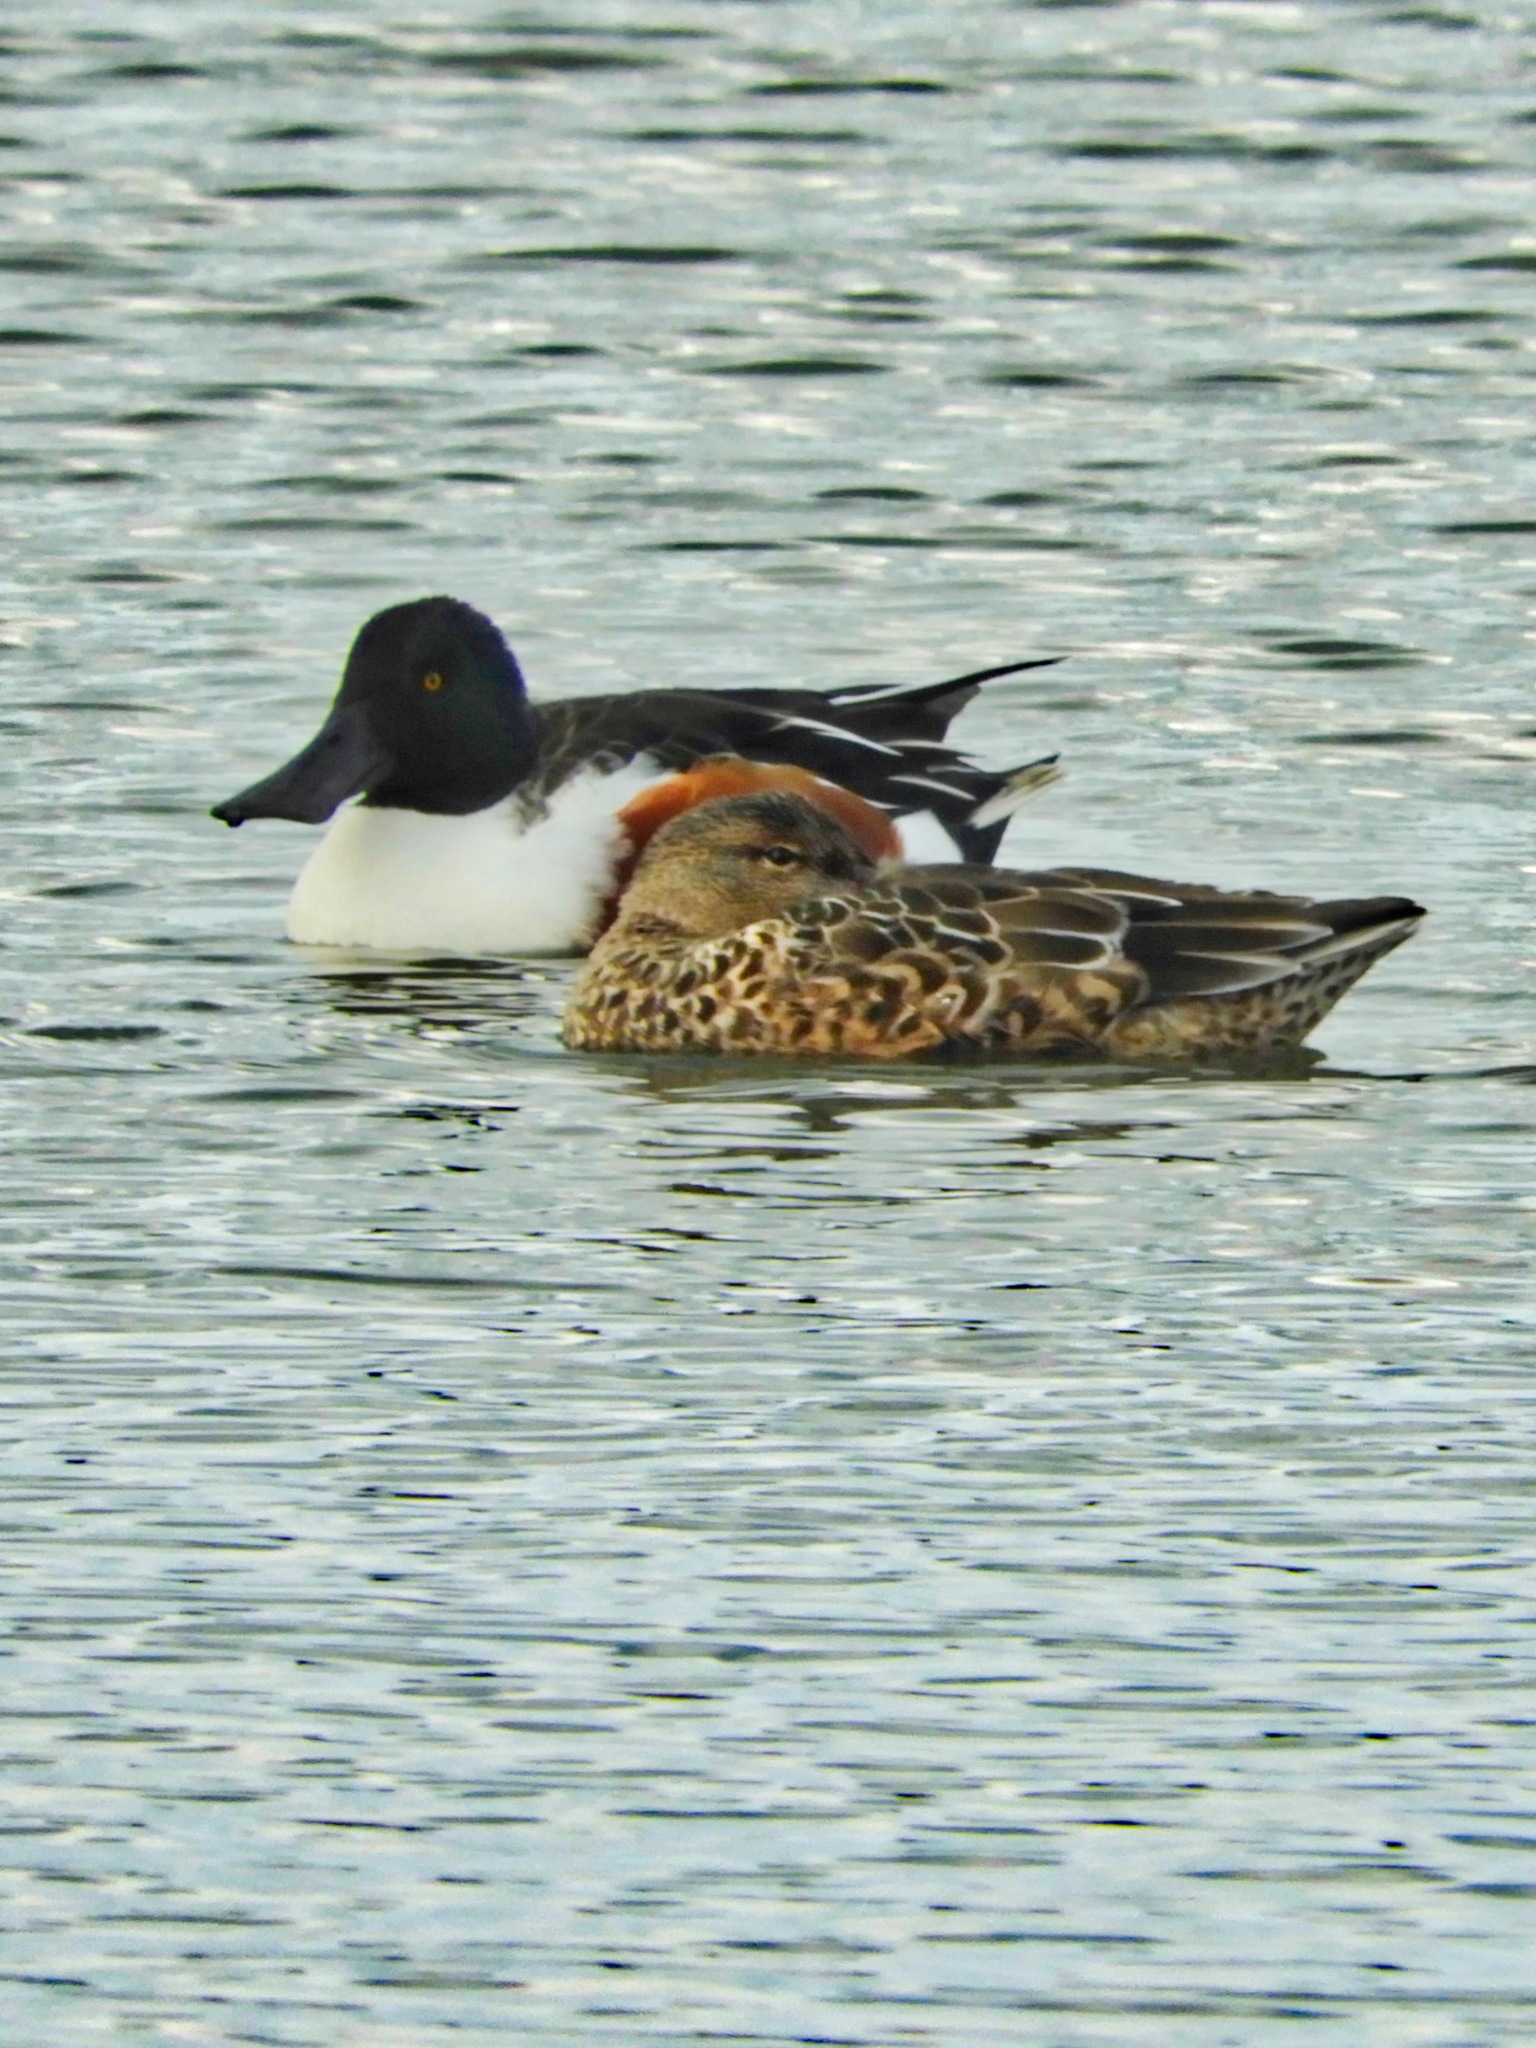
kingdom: Animalia
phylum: Chordata
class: Aves
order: Anseriformes
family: Anatidae
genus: Spatula
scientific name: Spatula clypeata
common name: Northern shoveler
